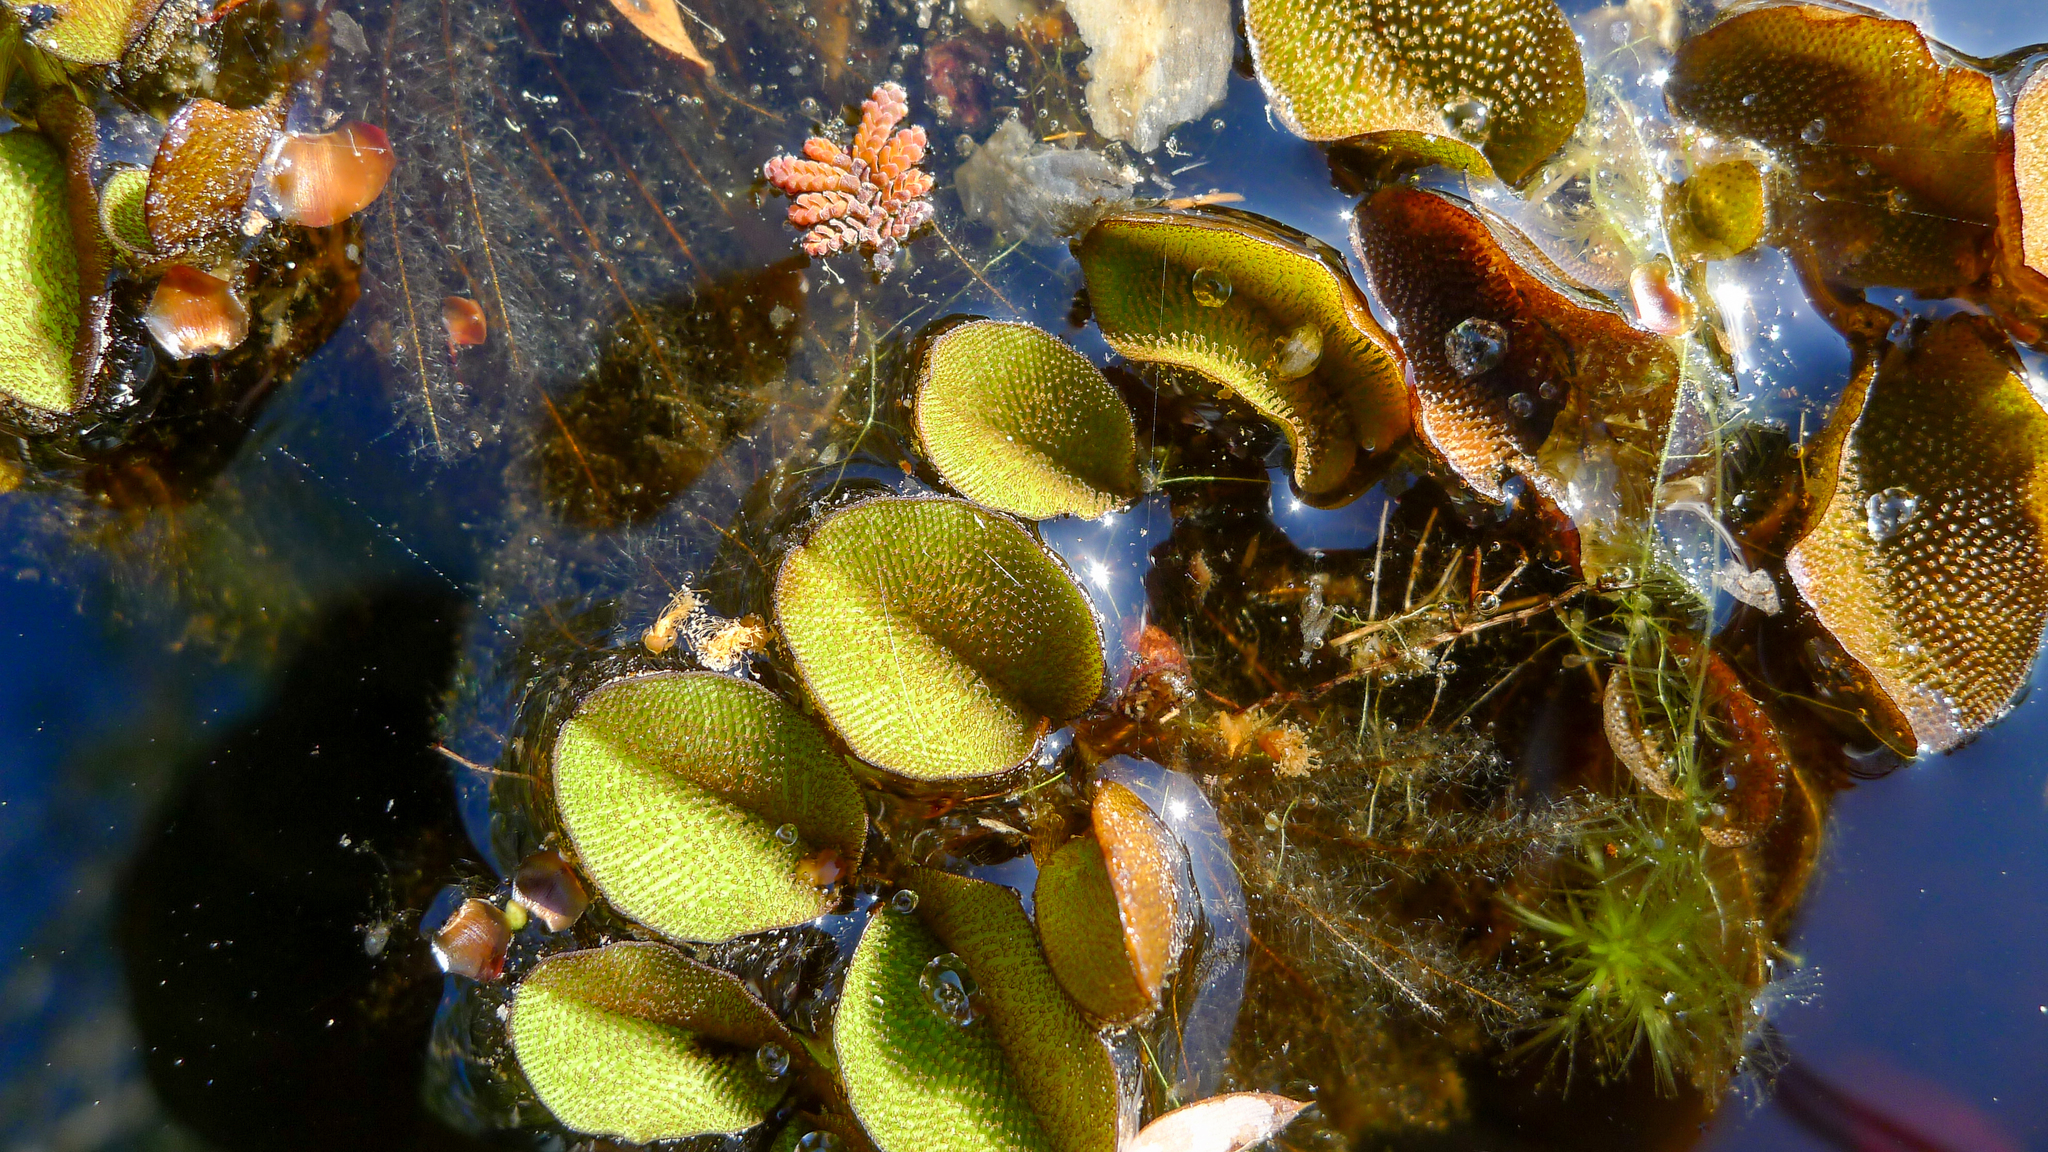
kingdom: Plantae
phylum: Tracheophyta
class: Polypodiopsida
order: Salviniales
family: Salviniaceae
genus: Salvinia
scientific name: Salvinia molesta
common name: Kariba weed
